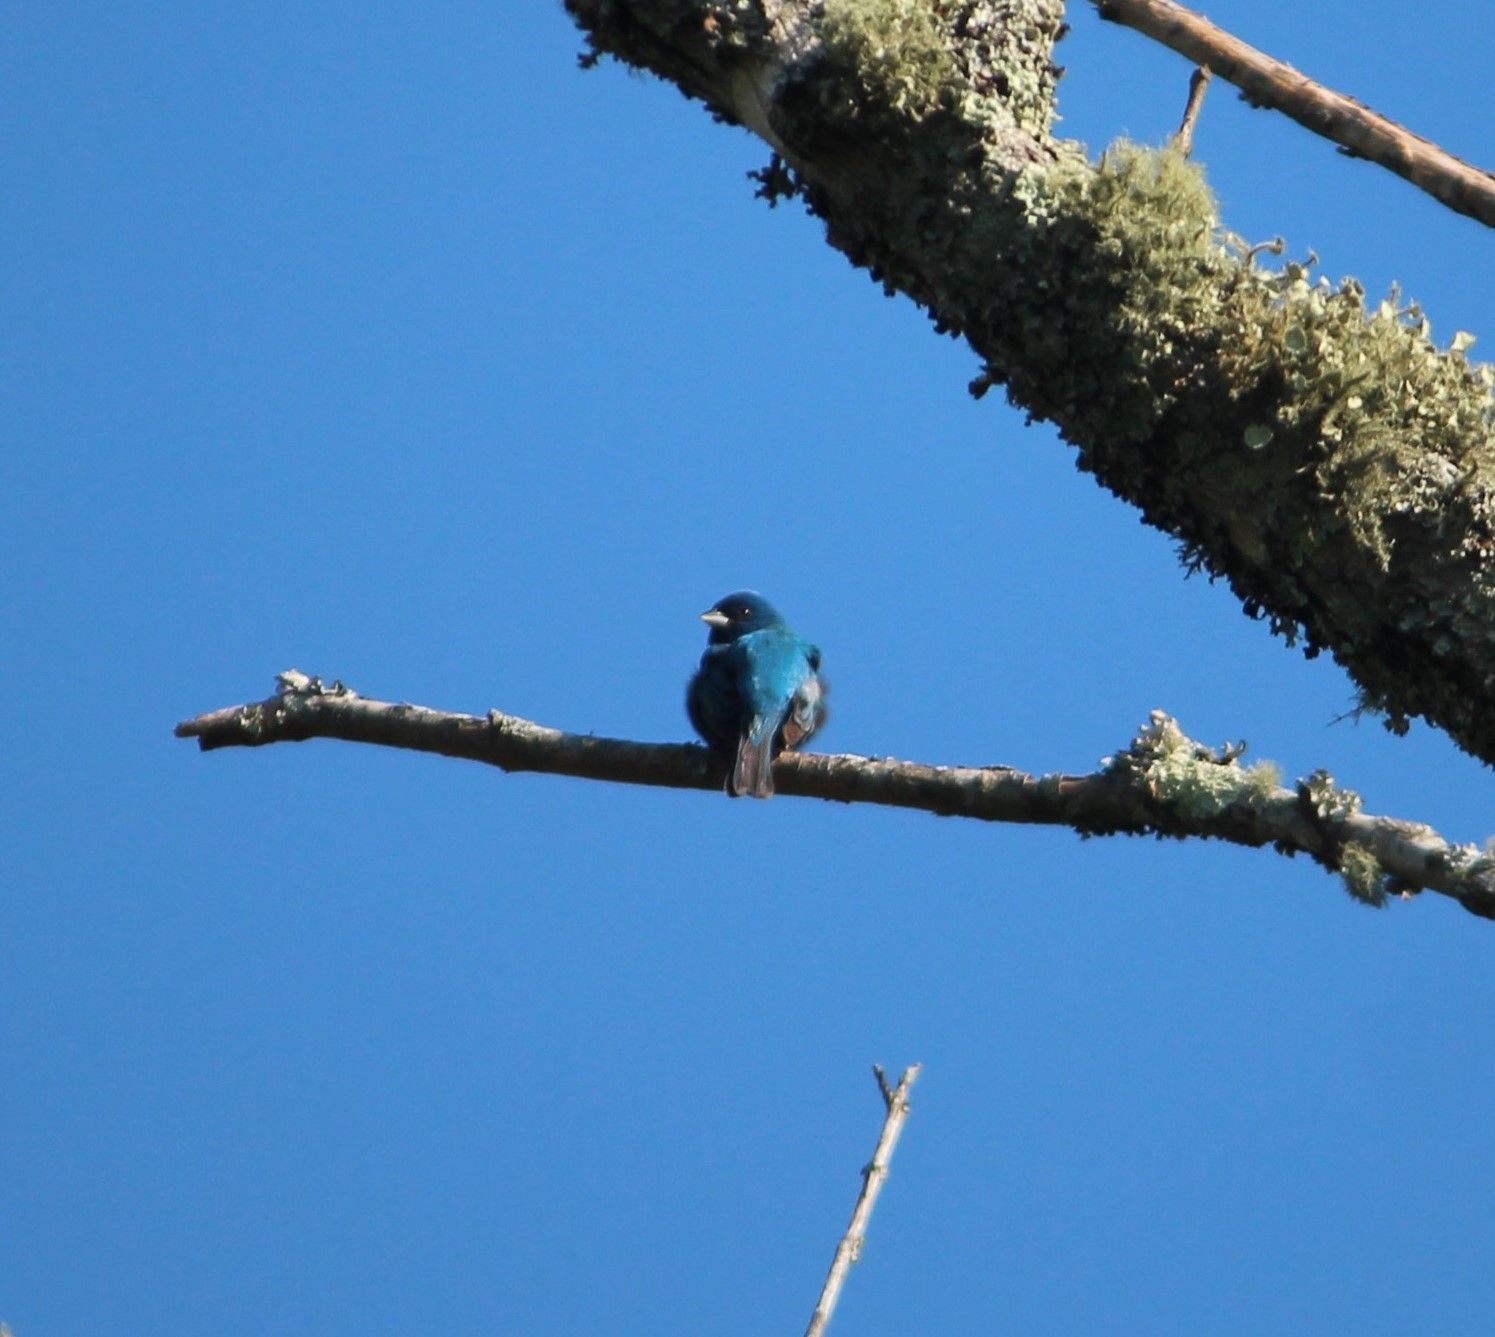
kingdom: Animalia
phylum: Chordata
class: Aves
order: Passeriformes
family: Cardinalidae
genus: Passerina
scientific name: Passerina cyanea
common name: Indigo bunting
